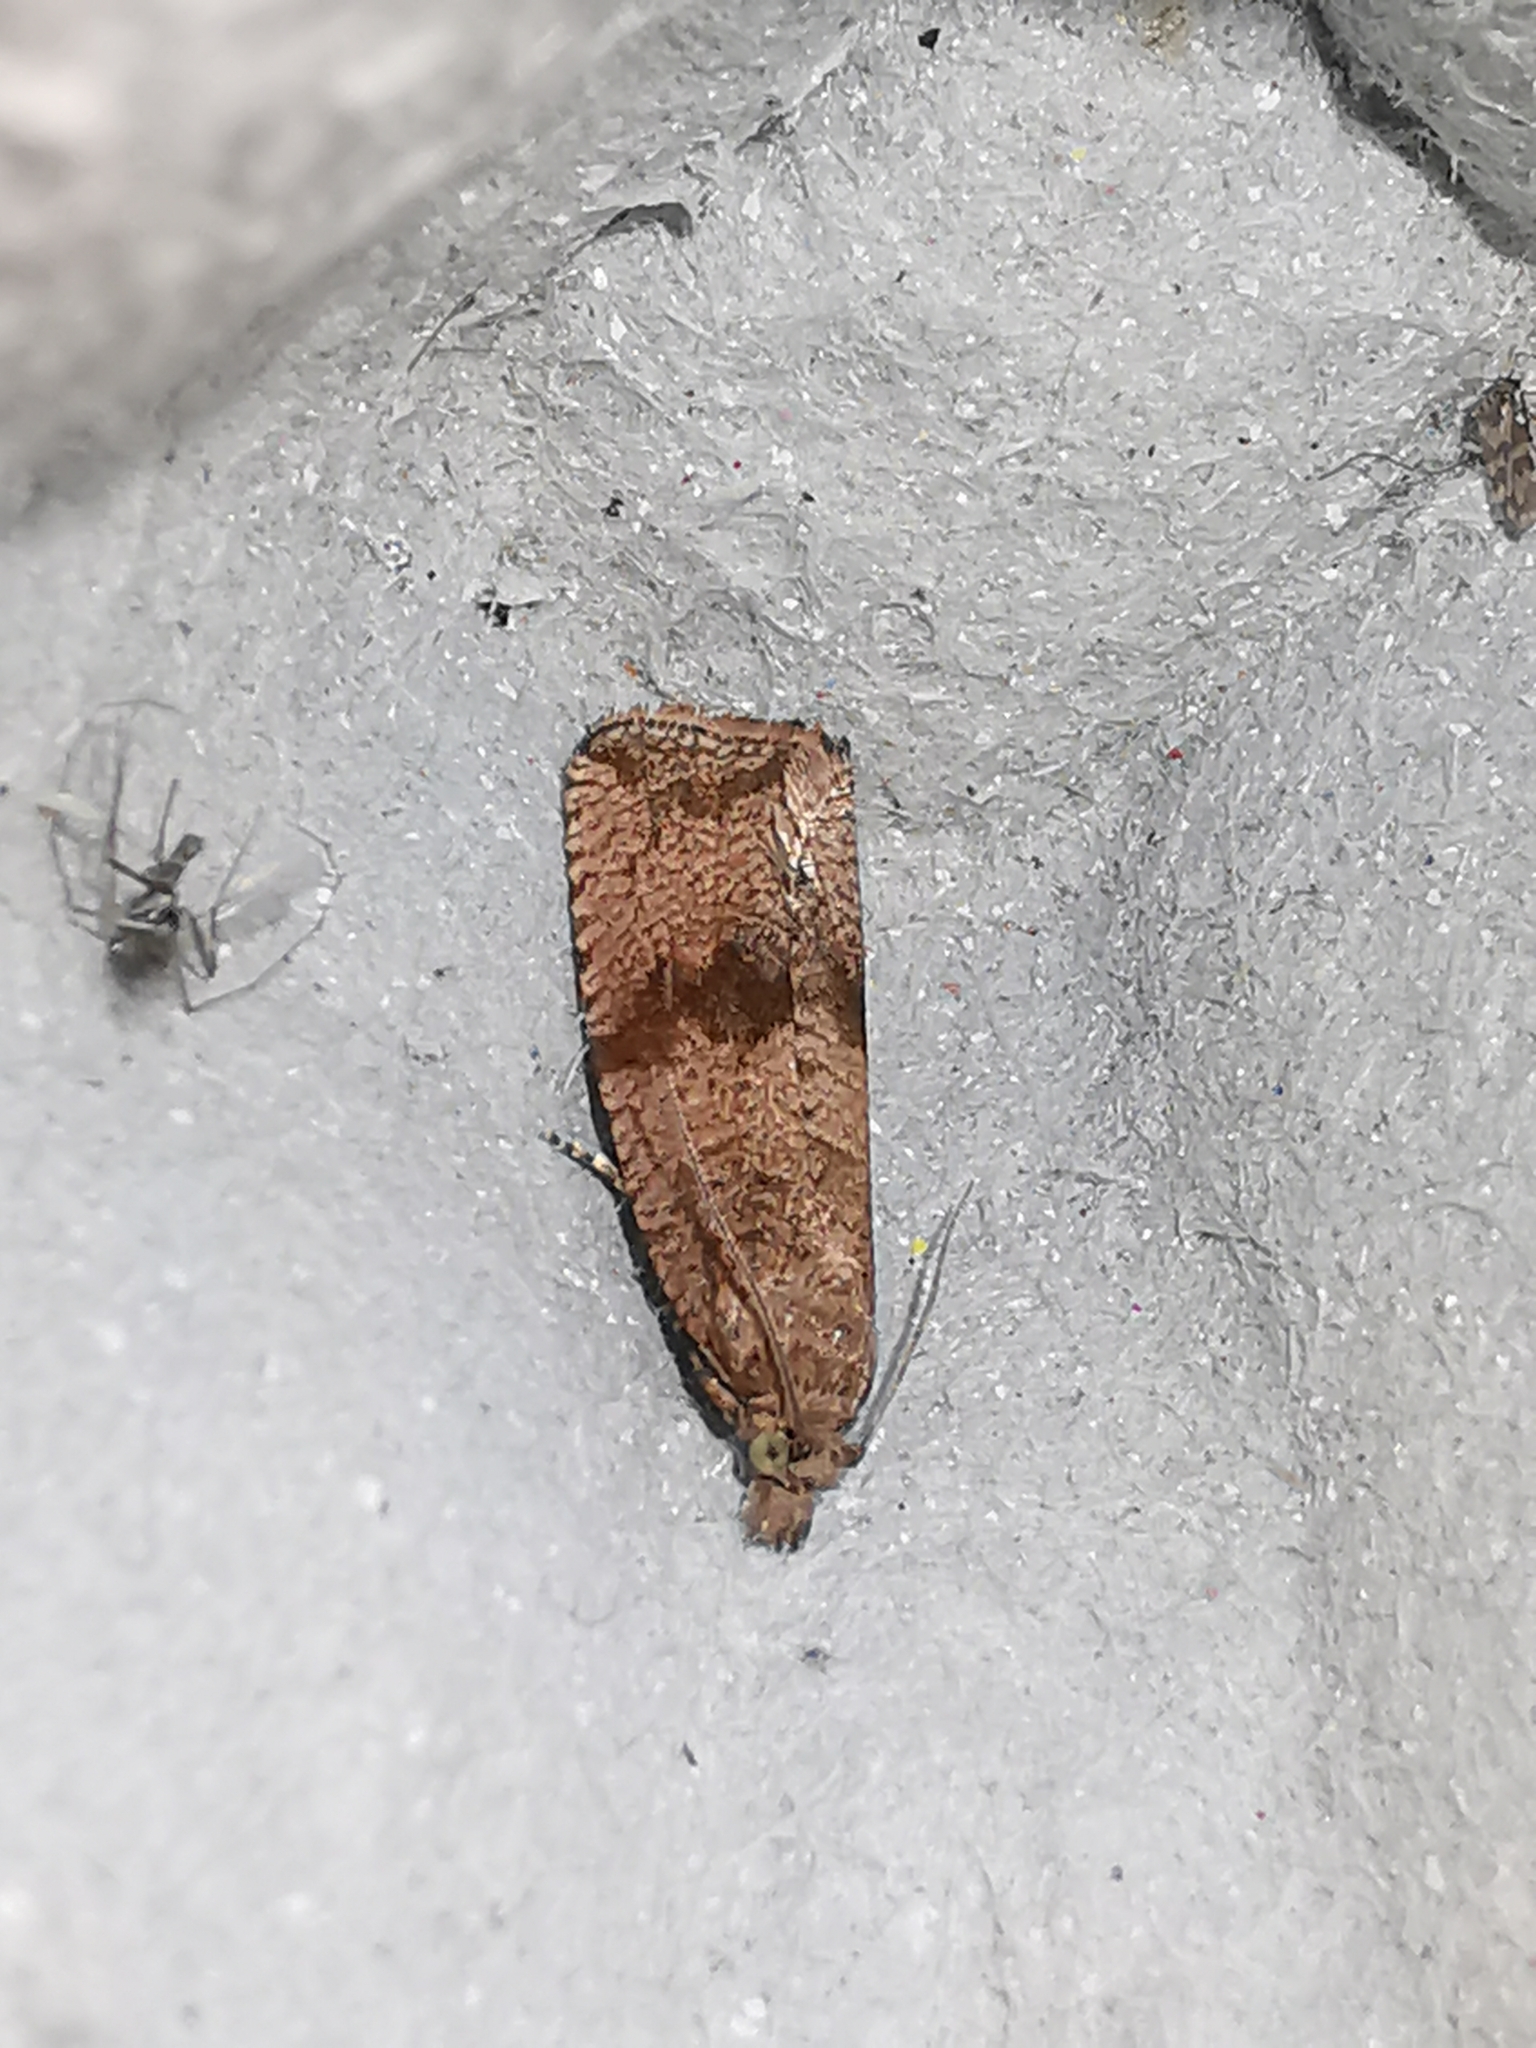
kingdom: Animalia
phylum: Arthropoda
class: Insecta
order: Lepidoptera
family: Tortricidae
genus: Celypha
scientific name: Celypha striana
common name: Barred marble
